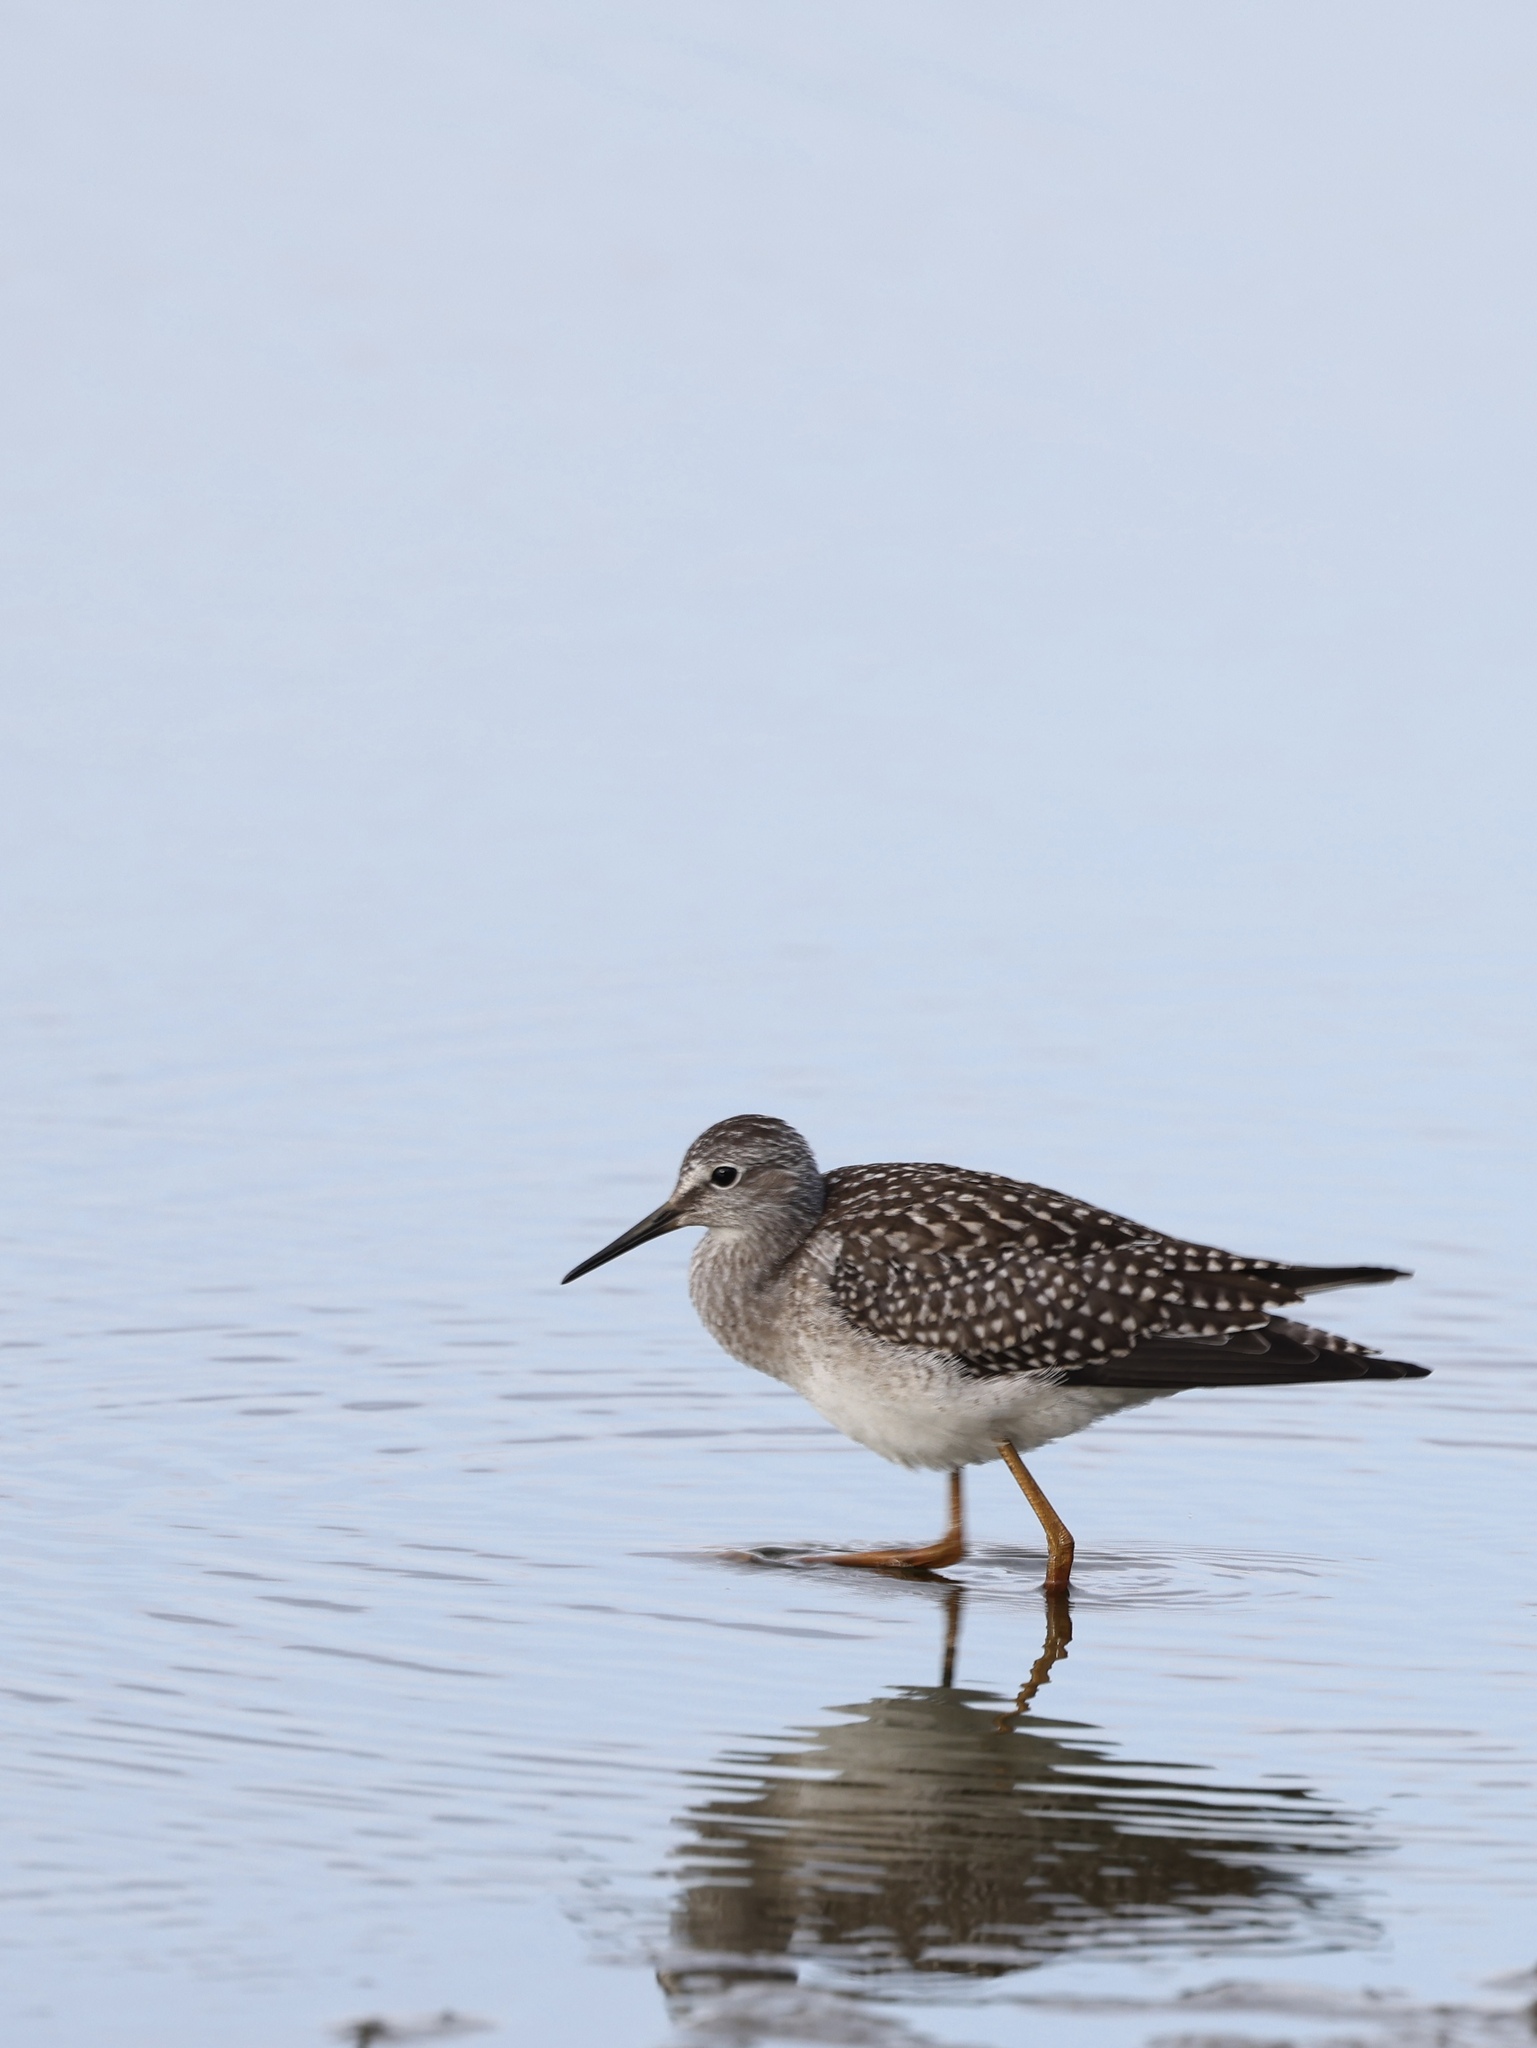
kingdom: Animalia
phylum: Chordata
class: Aves
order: Charadriiformes
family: Scolopacidae
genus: Tringa
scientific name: Tringa flavipes
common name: Lesser yellowlegs
